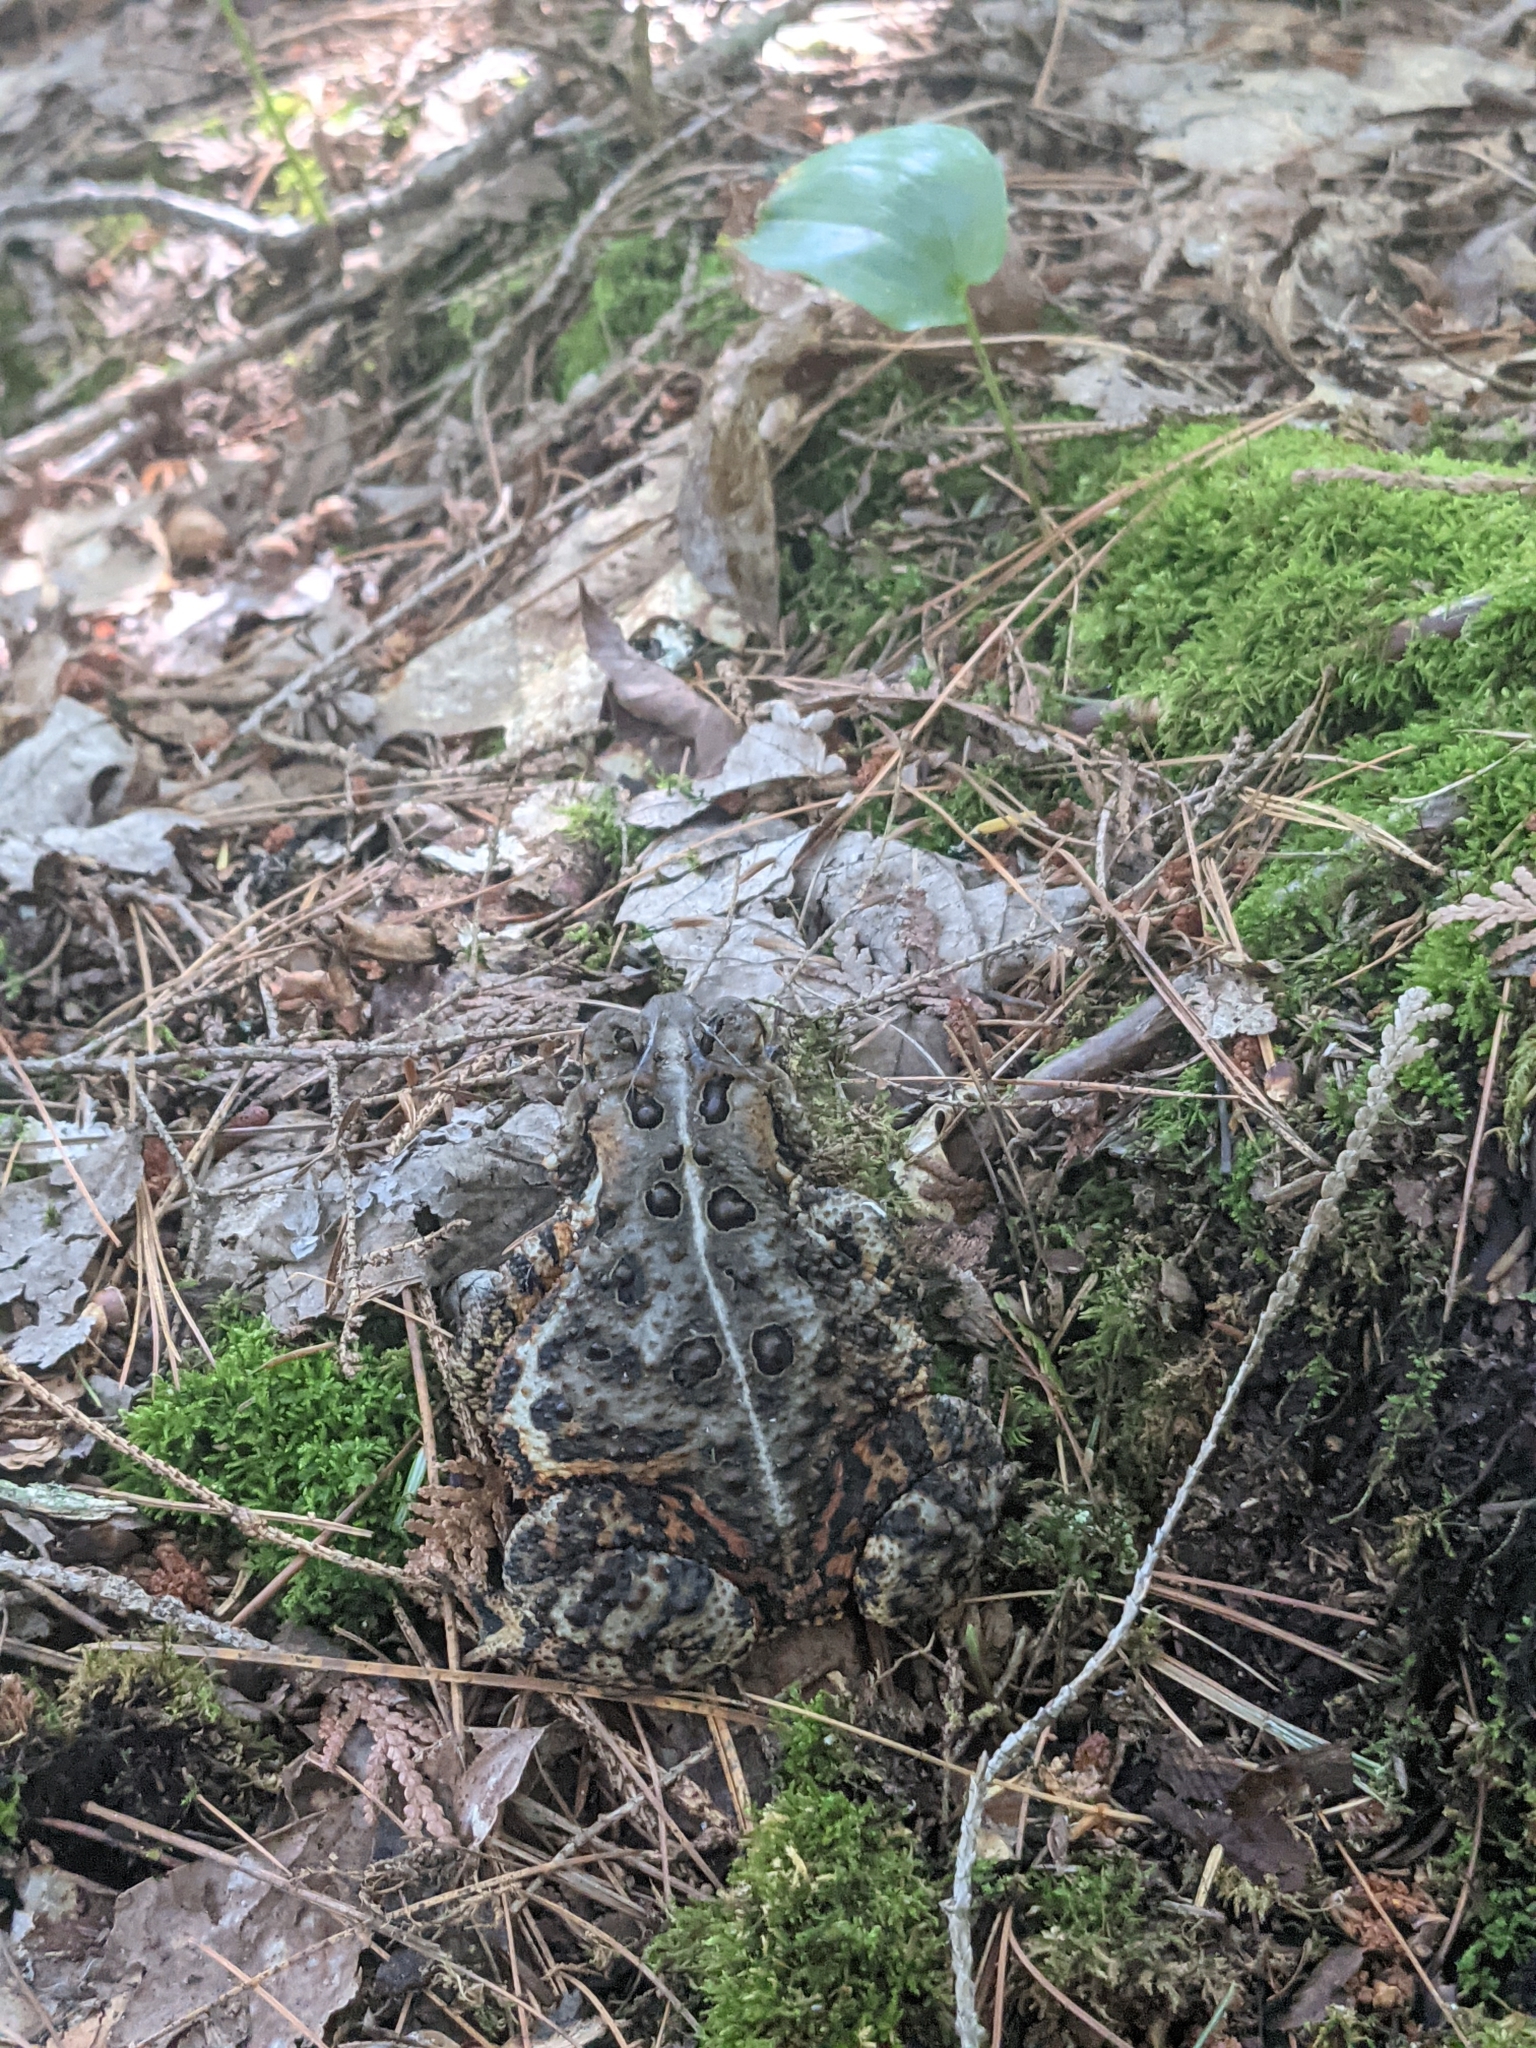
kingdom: Animalia
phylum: Chordata
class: Amphibia
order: Anura
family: Bufonidae
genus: Anaxyrus
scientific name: Anaxyrus americanus
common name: American toad
